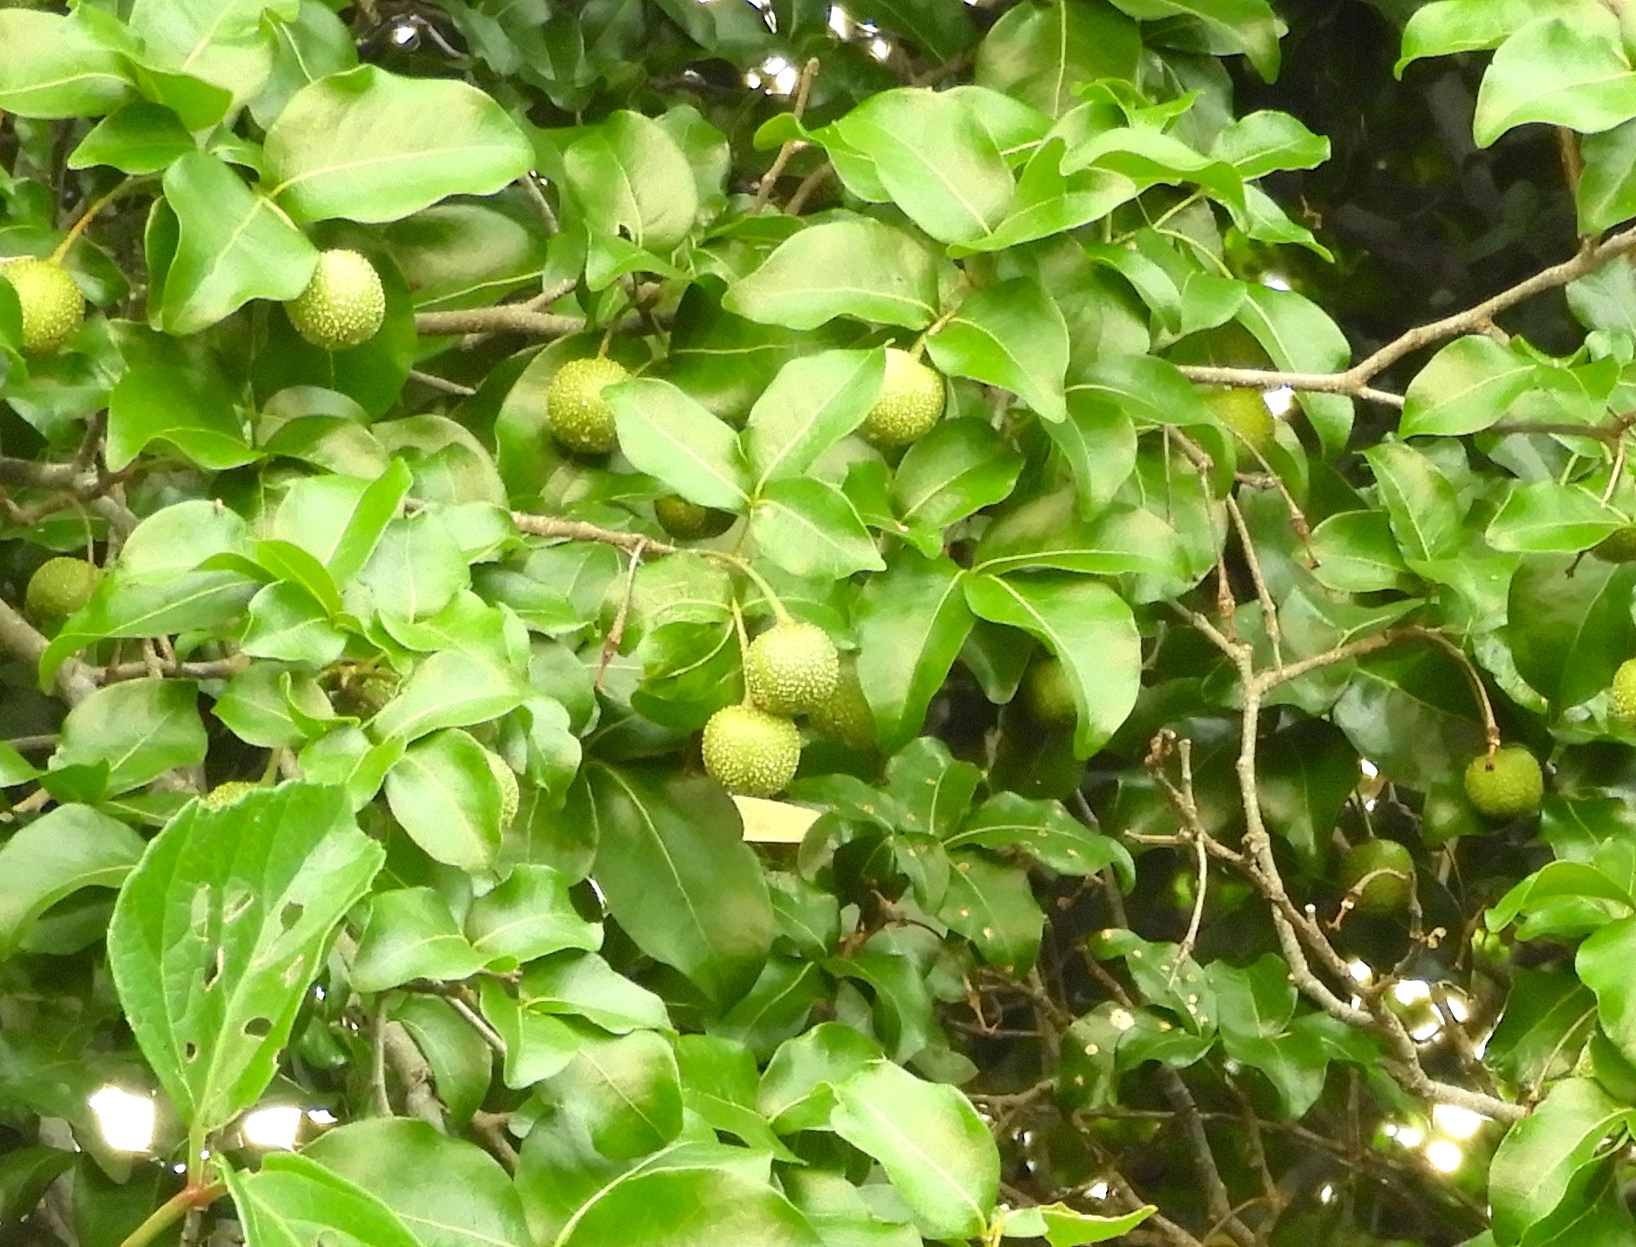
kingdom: Plantae
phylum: Tracheophyta
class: Magnoliopsida
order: Malpighiales
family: Picrodendraceae
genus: Piranhea
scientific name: Piranhea mexicana
